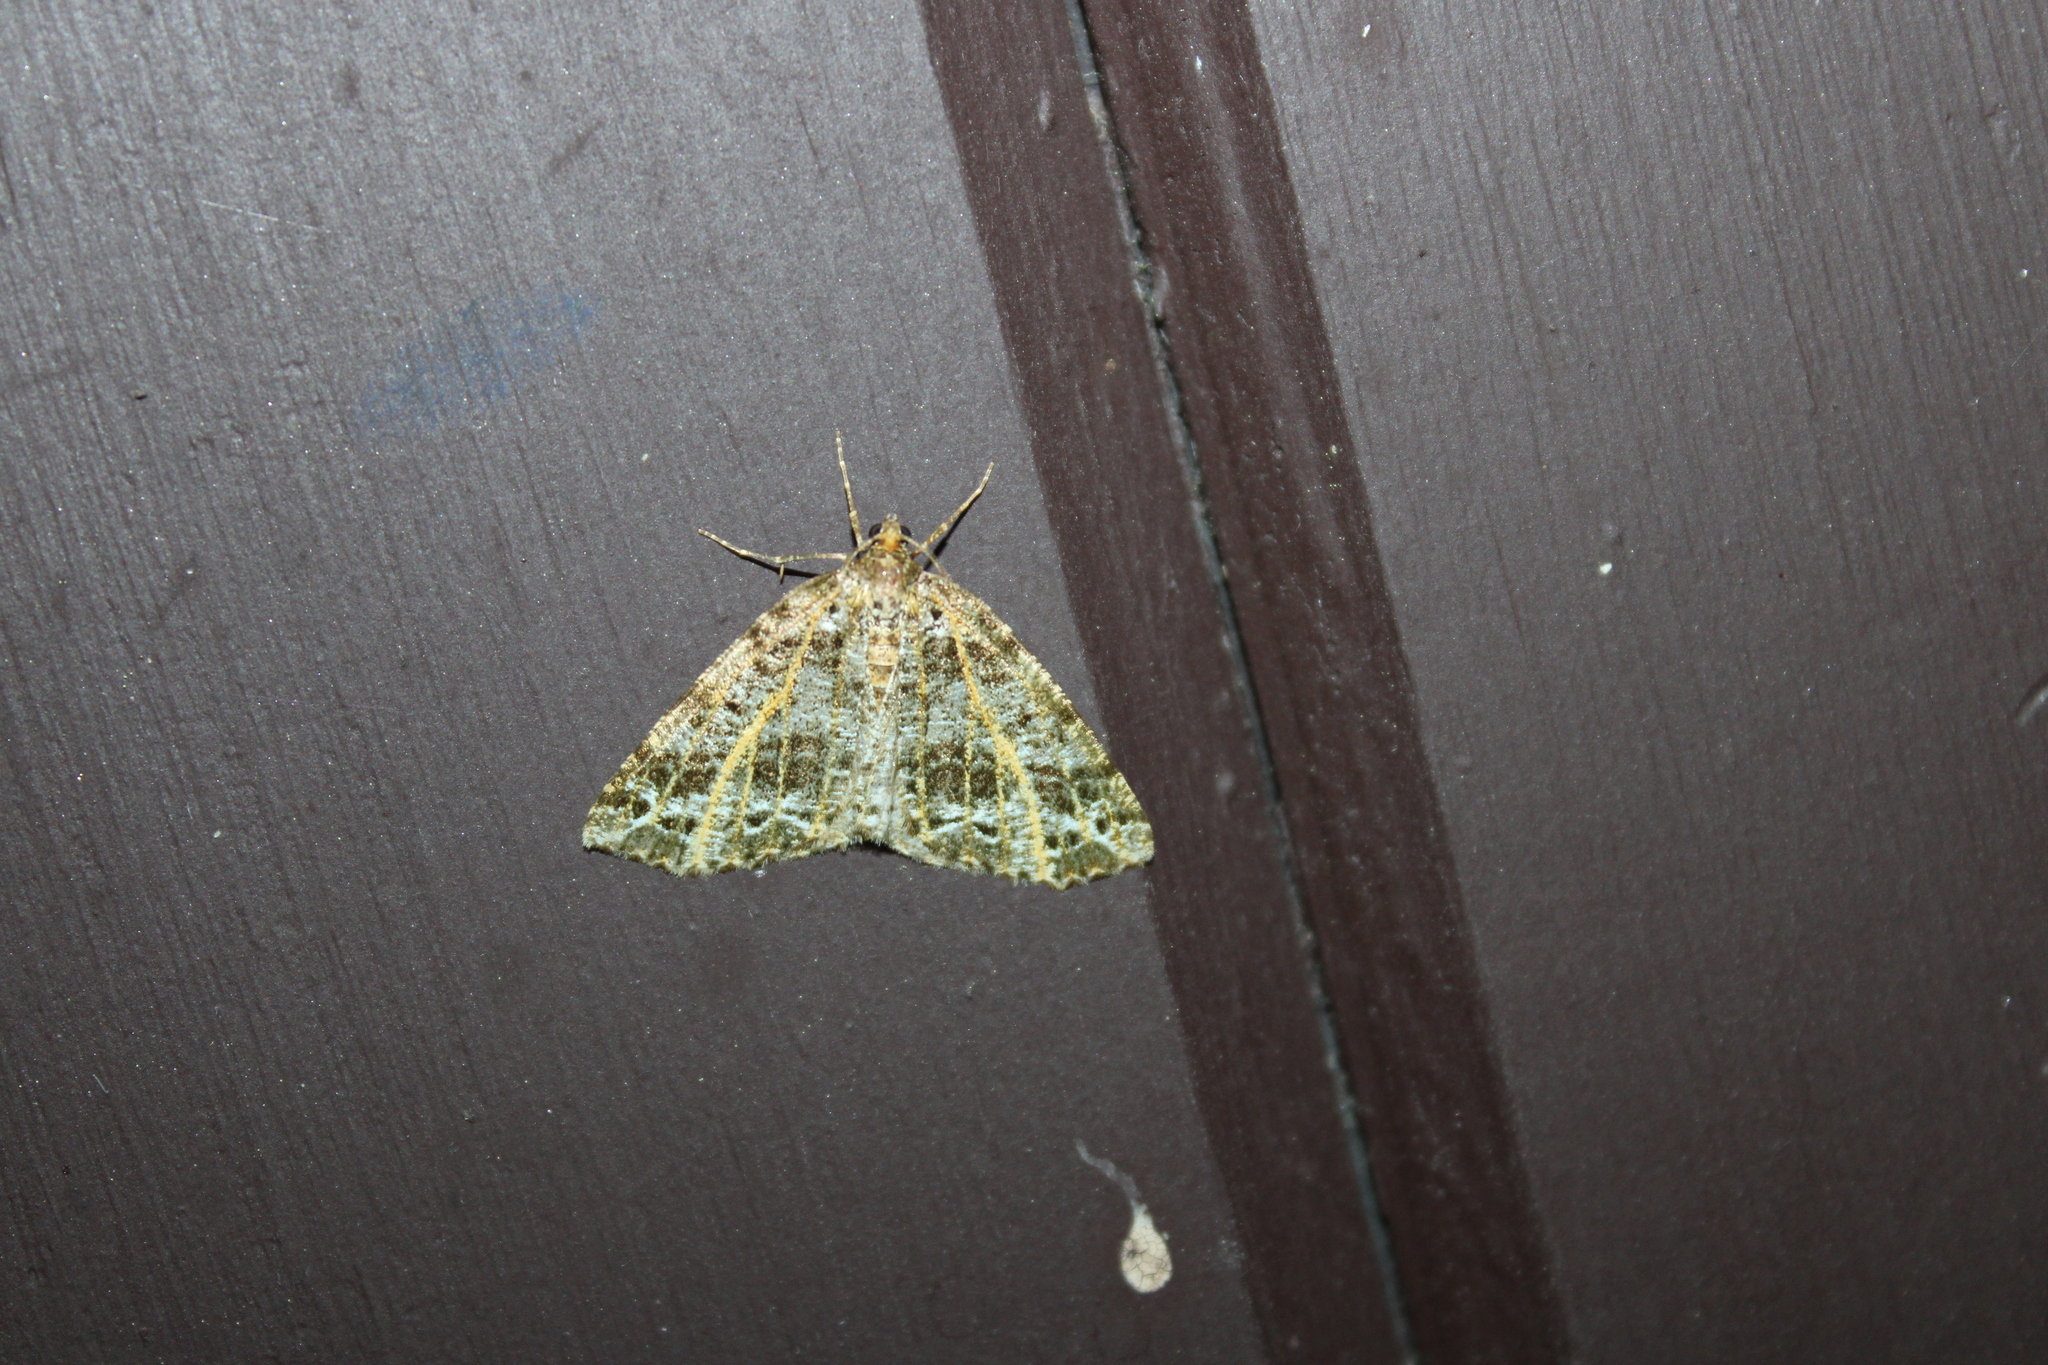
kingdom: Animalia
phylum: Arthropoda
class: Insecta
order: Lepidoptera
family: Geometridae
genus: Orthofidonia
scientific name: Orthofidonia flavivenata
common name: Yellow-veined geometer moth
